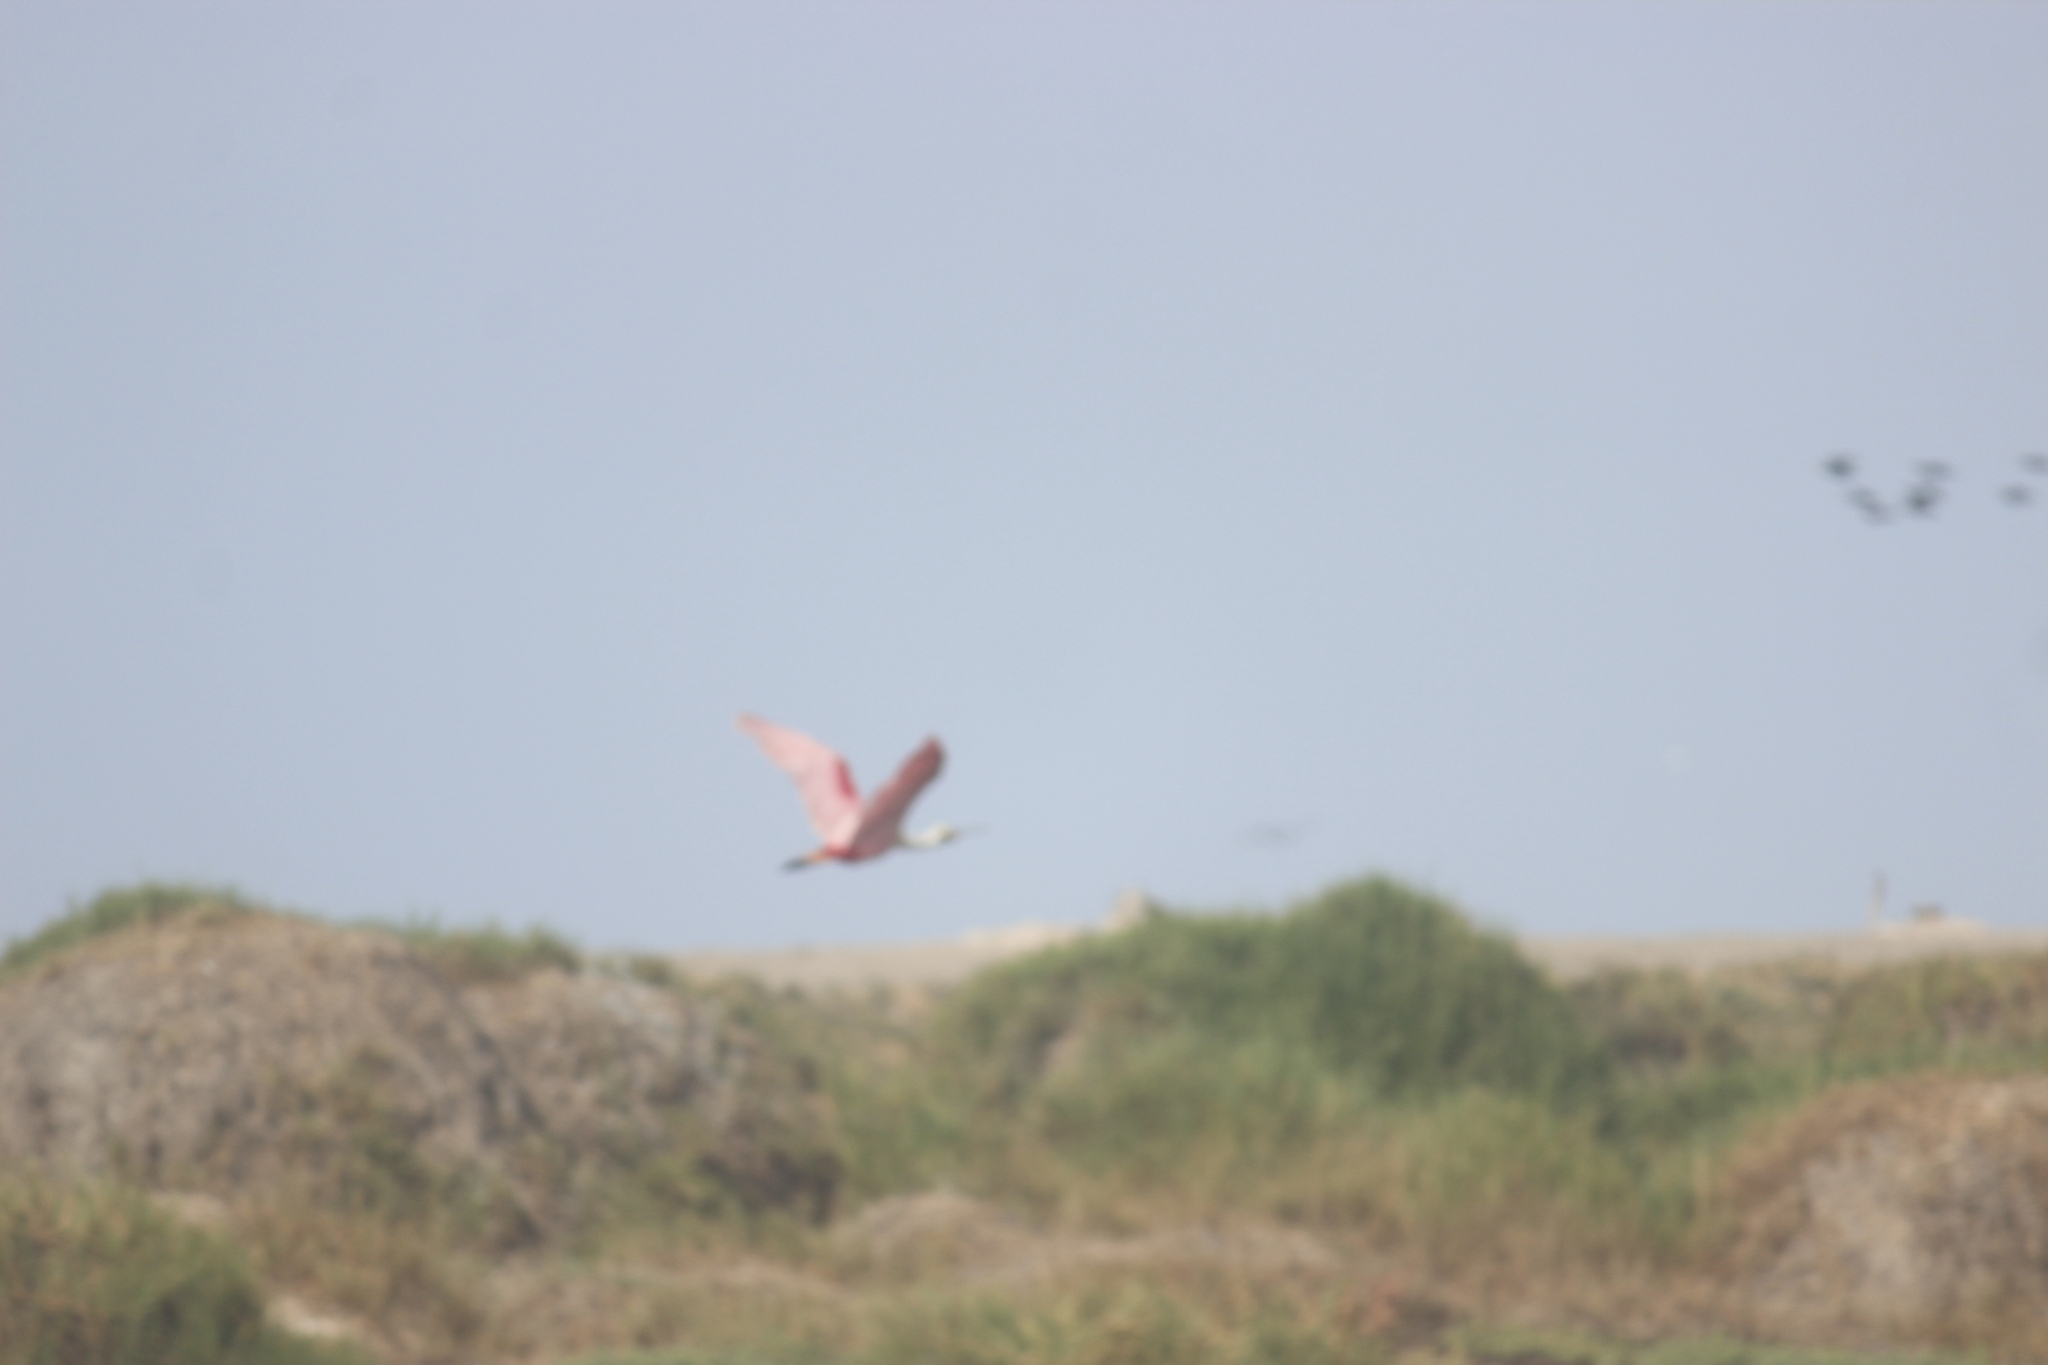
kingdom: Animalia
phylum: Chordata
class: Aves
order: Pelecaniformes
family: Threskiornithidae
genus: Platalea
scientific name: Platalea ajaja
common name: Roseate spoonbill
